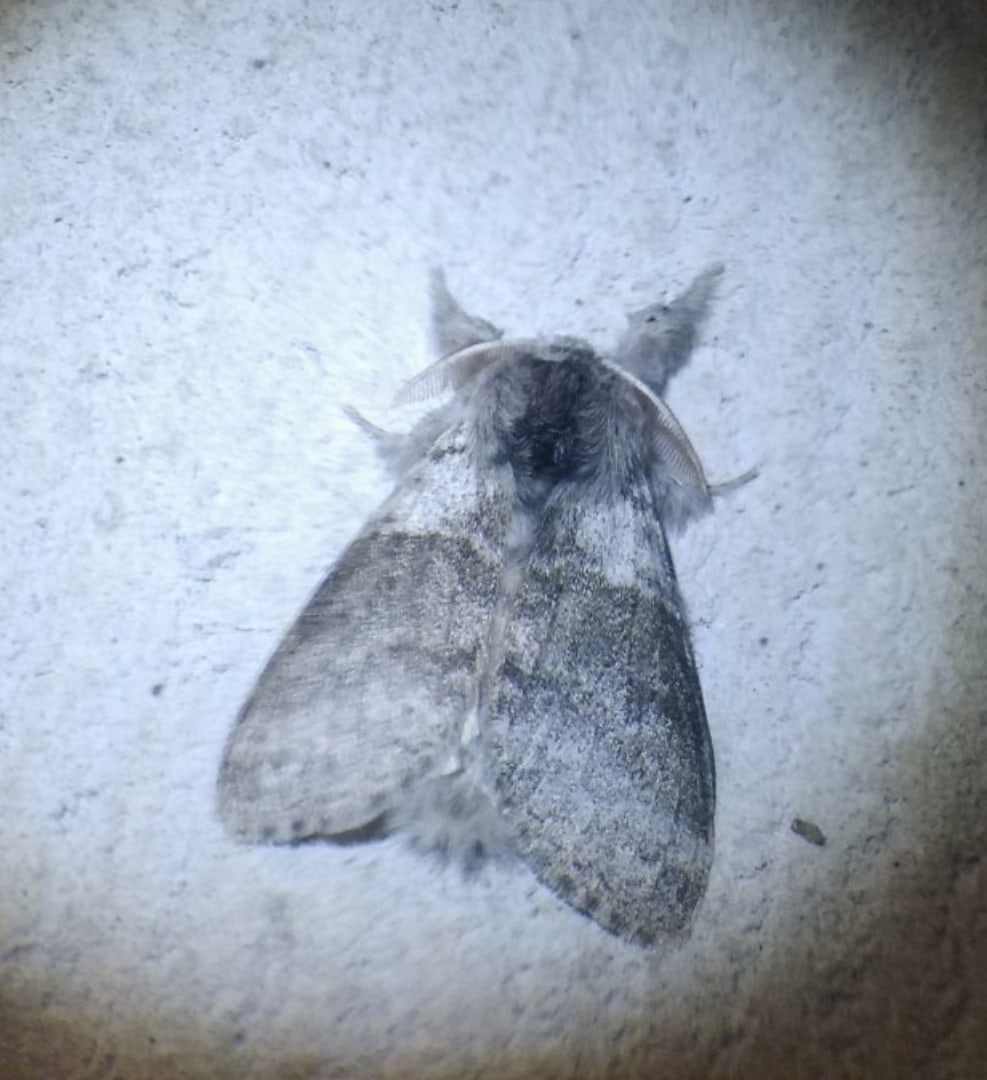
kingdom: Animalia
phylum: Arthropoda
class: Insecta
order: Lepidoptera
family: Erebidae
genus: Calliteara
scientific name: Calliteara pudibunda
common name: Pale tussock
